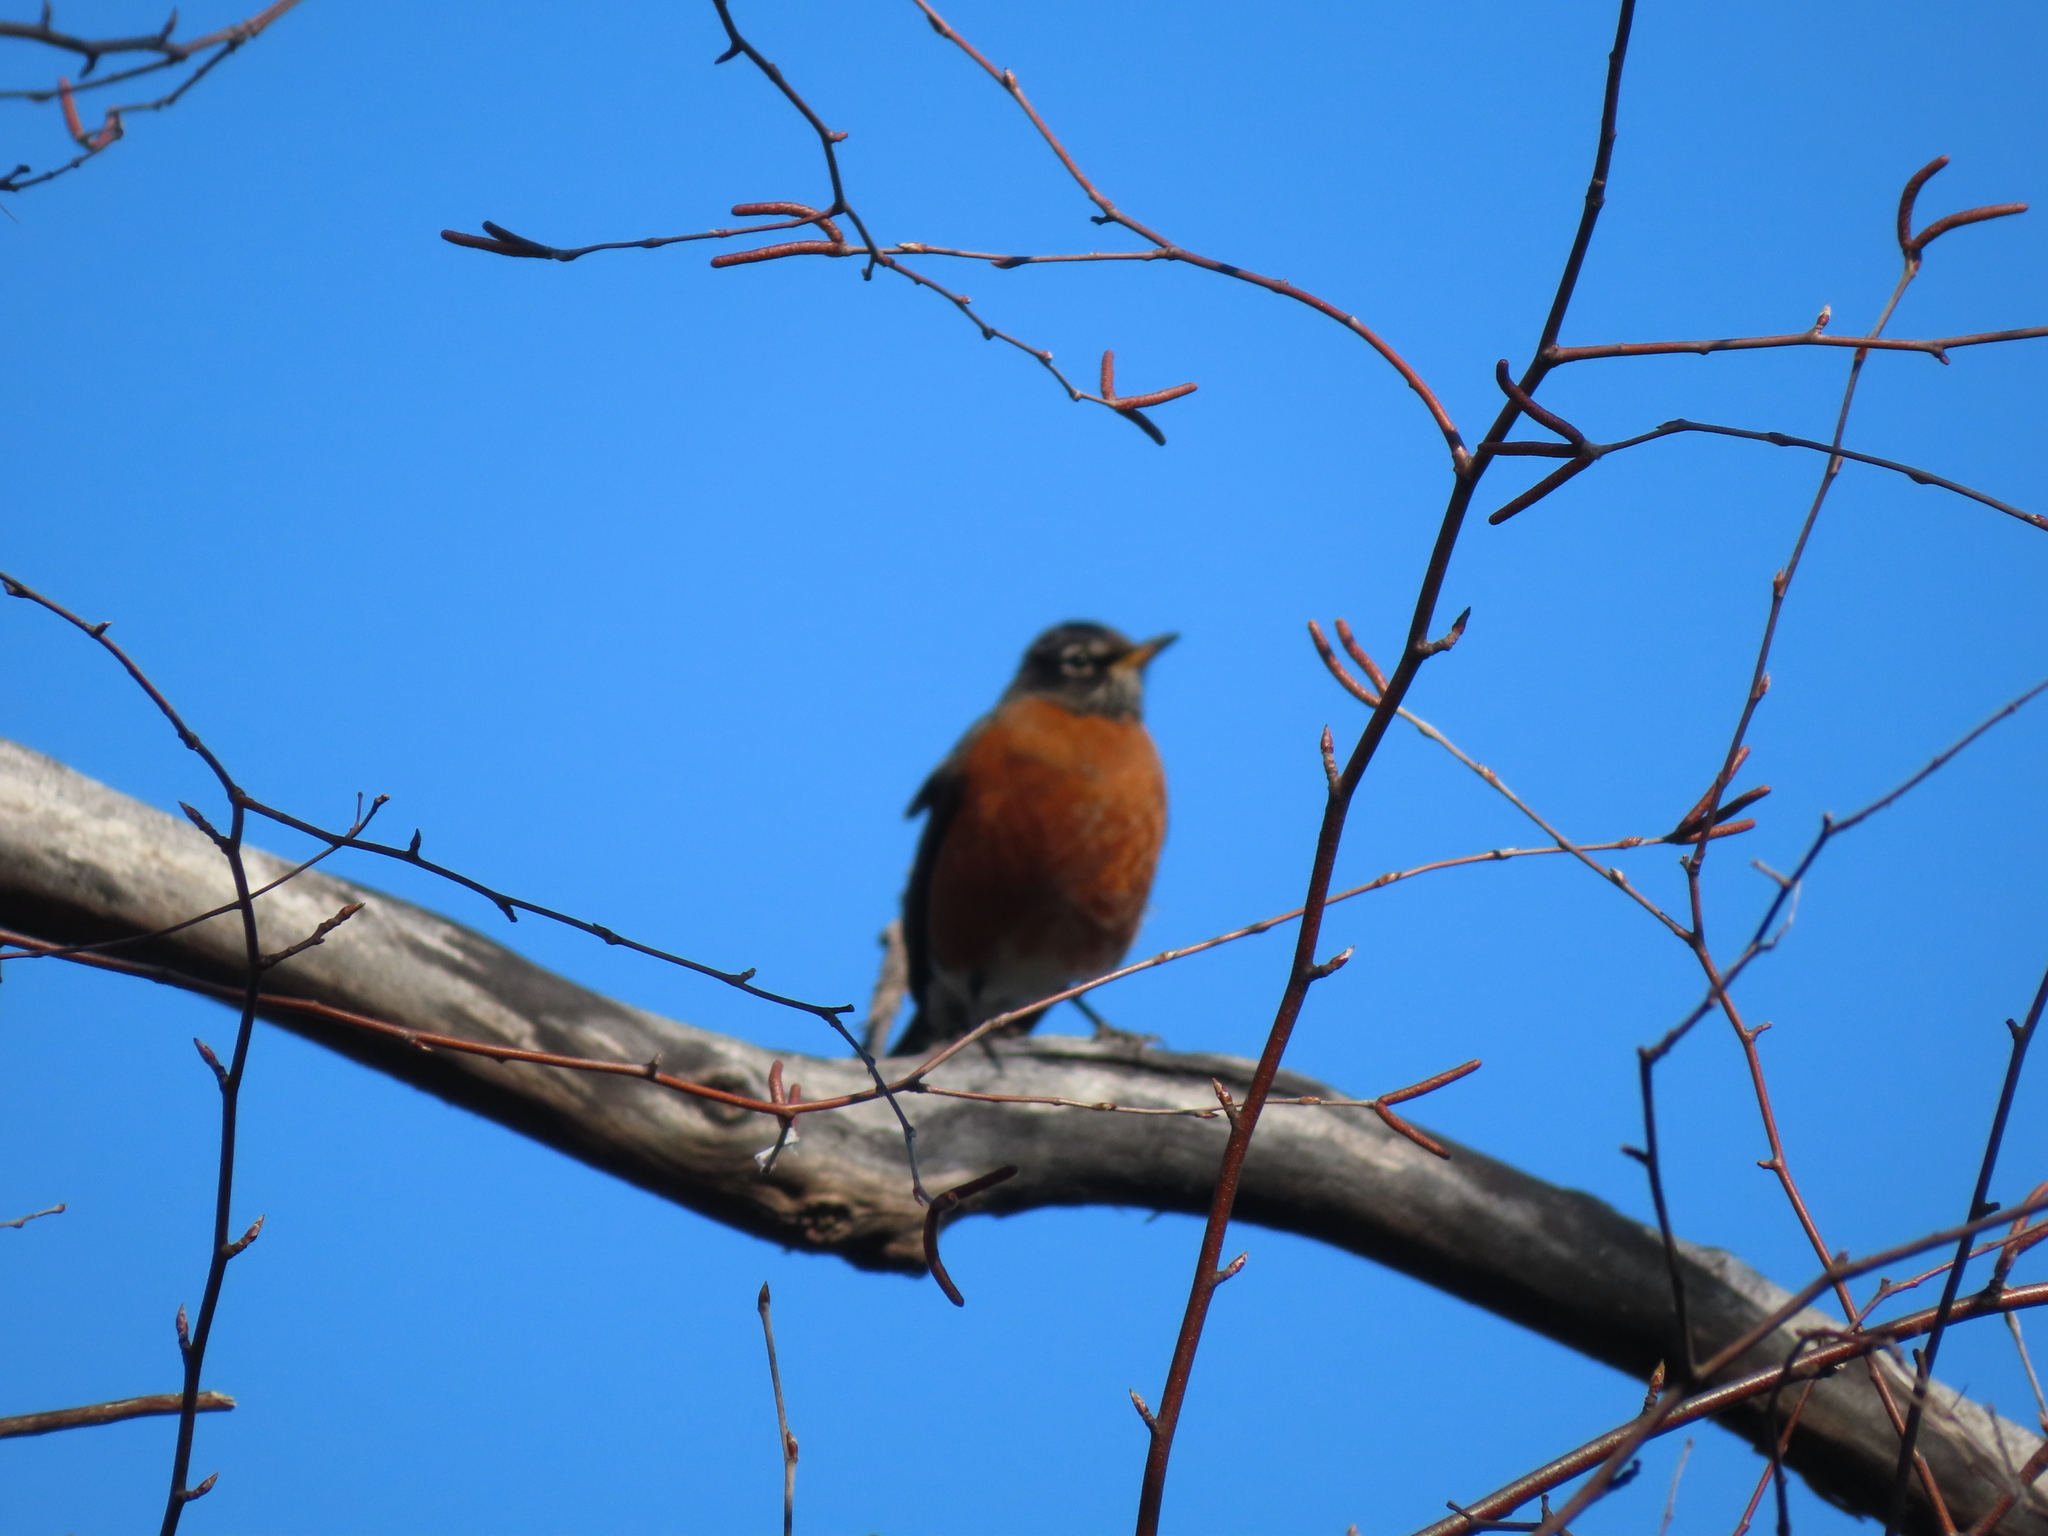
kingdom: Animalia
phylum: Chordata
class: Aves
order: Passeriformes
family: Turdidae
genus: Turdus
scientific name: Turdus migratorius
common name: American robin
